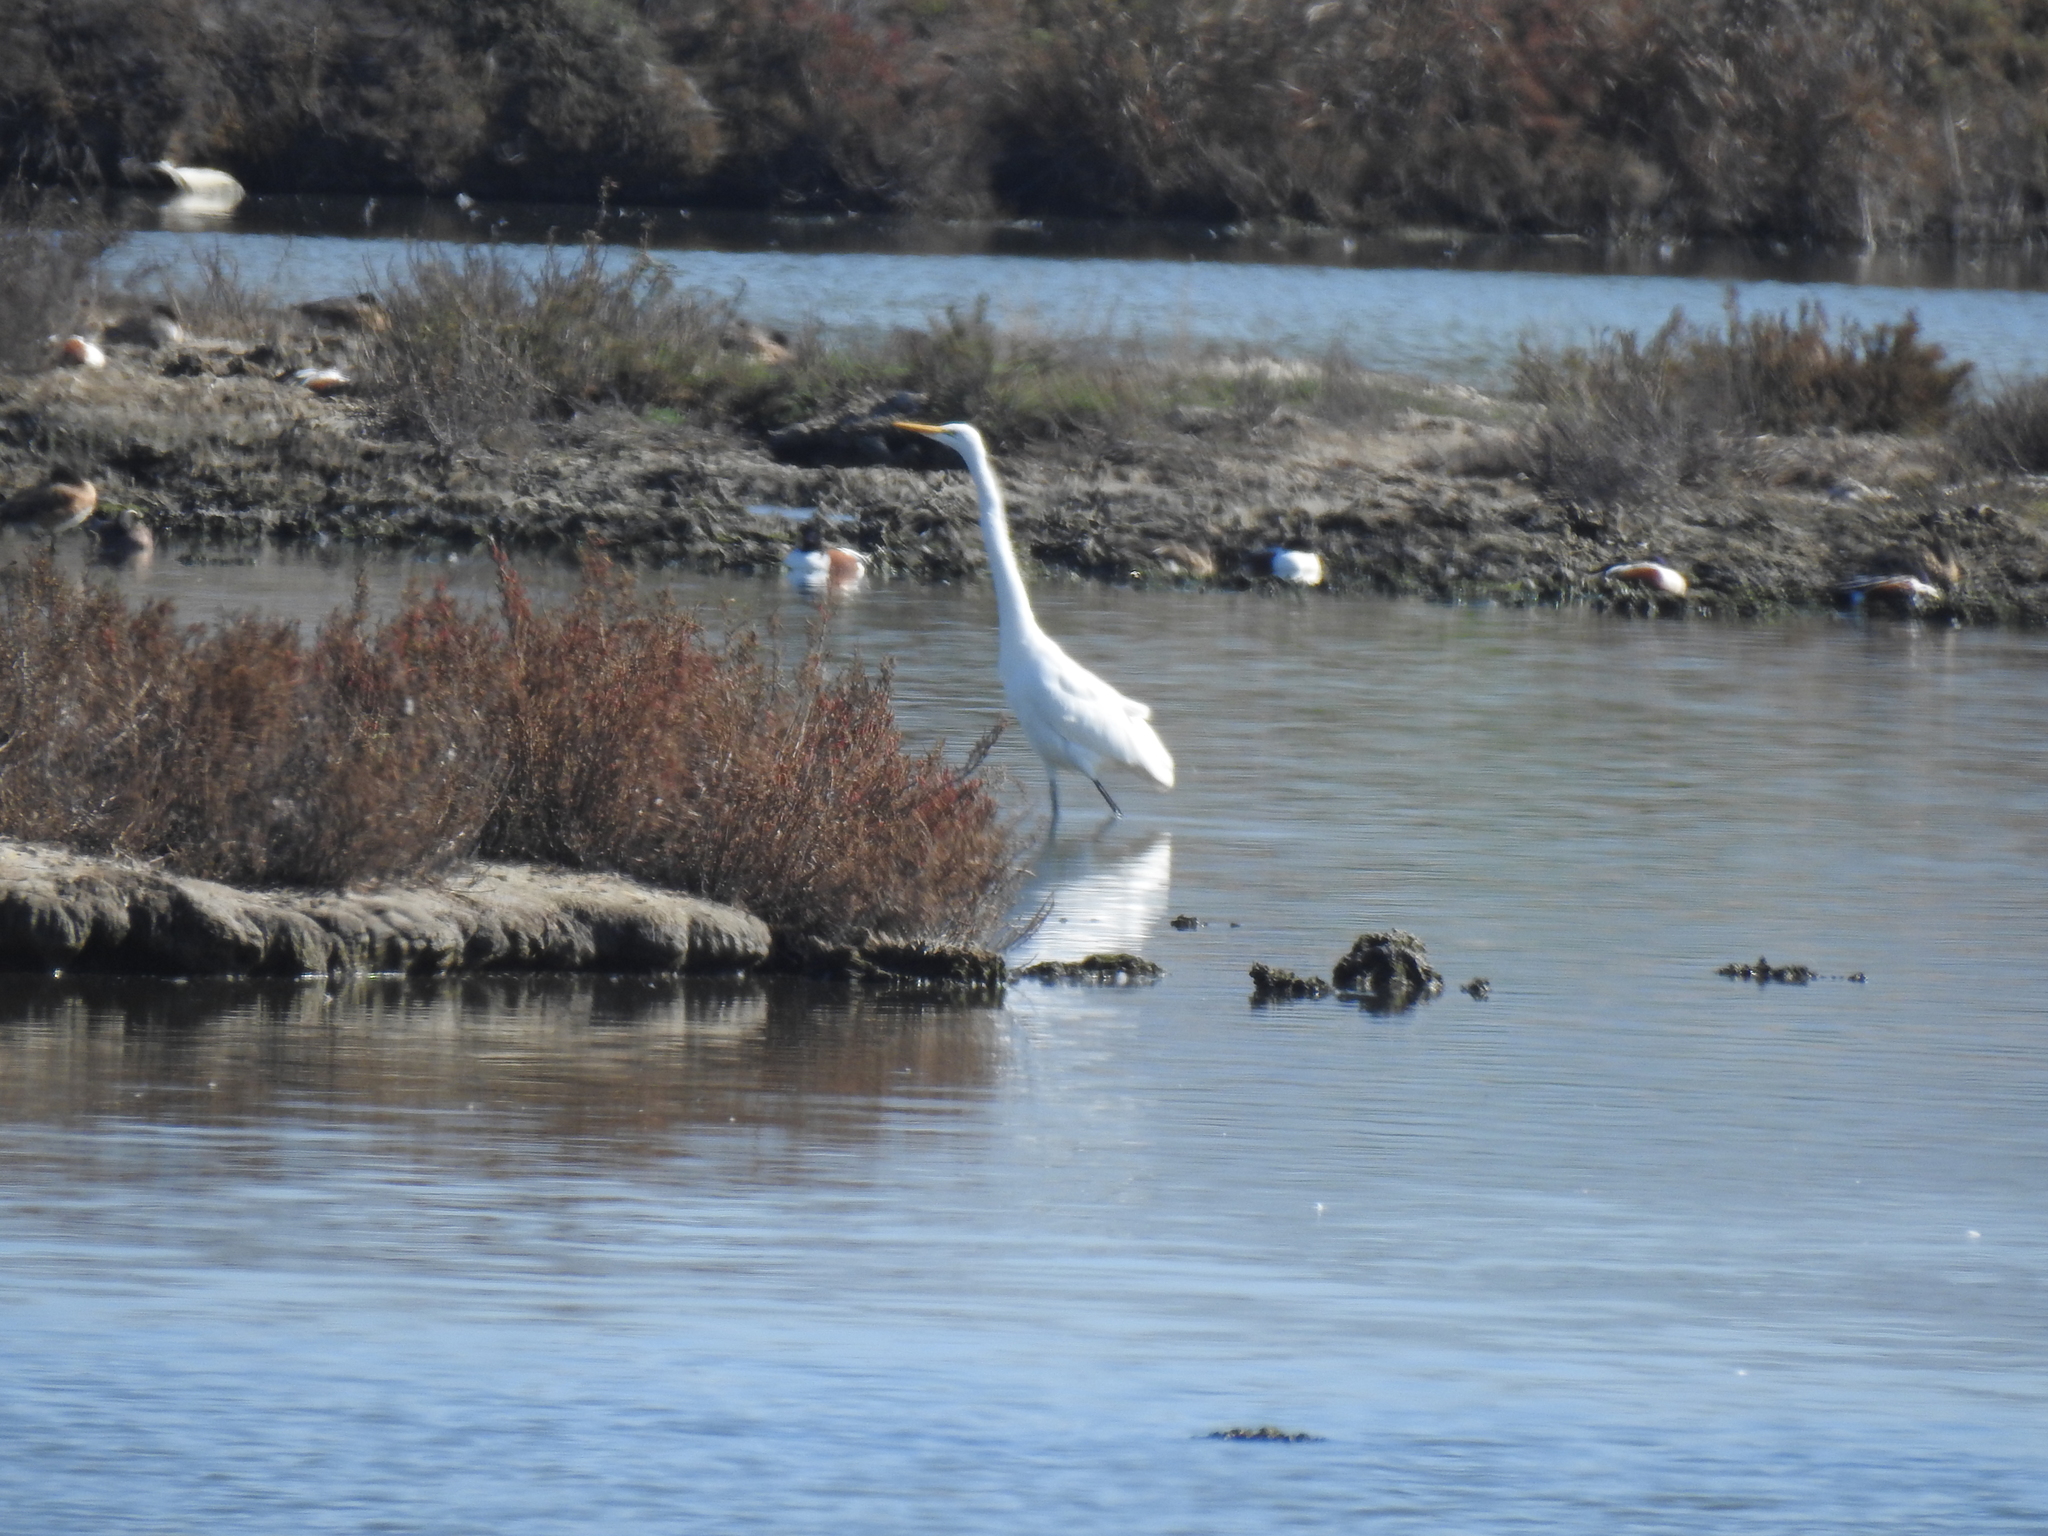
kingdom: Animalia
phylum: Chordata
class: Aves
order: Pelecaniformes
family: Ardeidae
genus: Ardea
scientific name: Ardea alba
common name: Great egret
